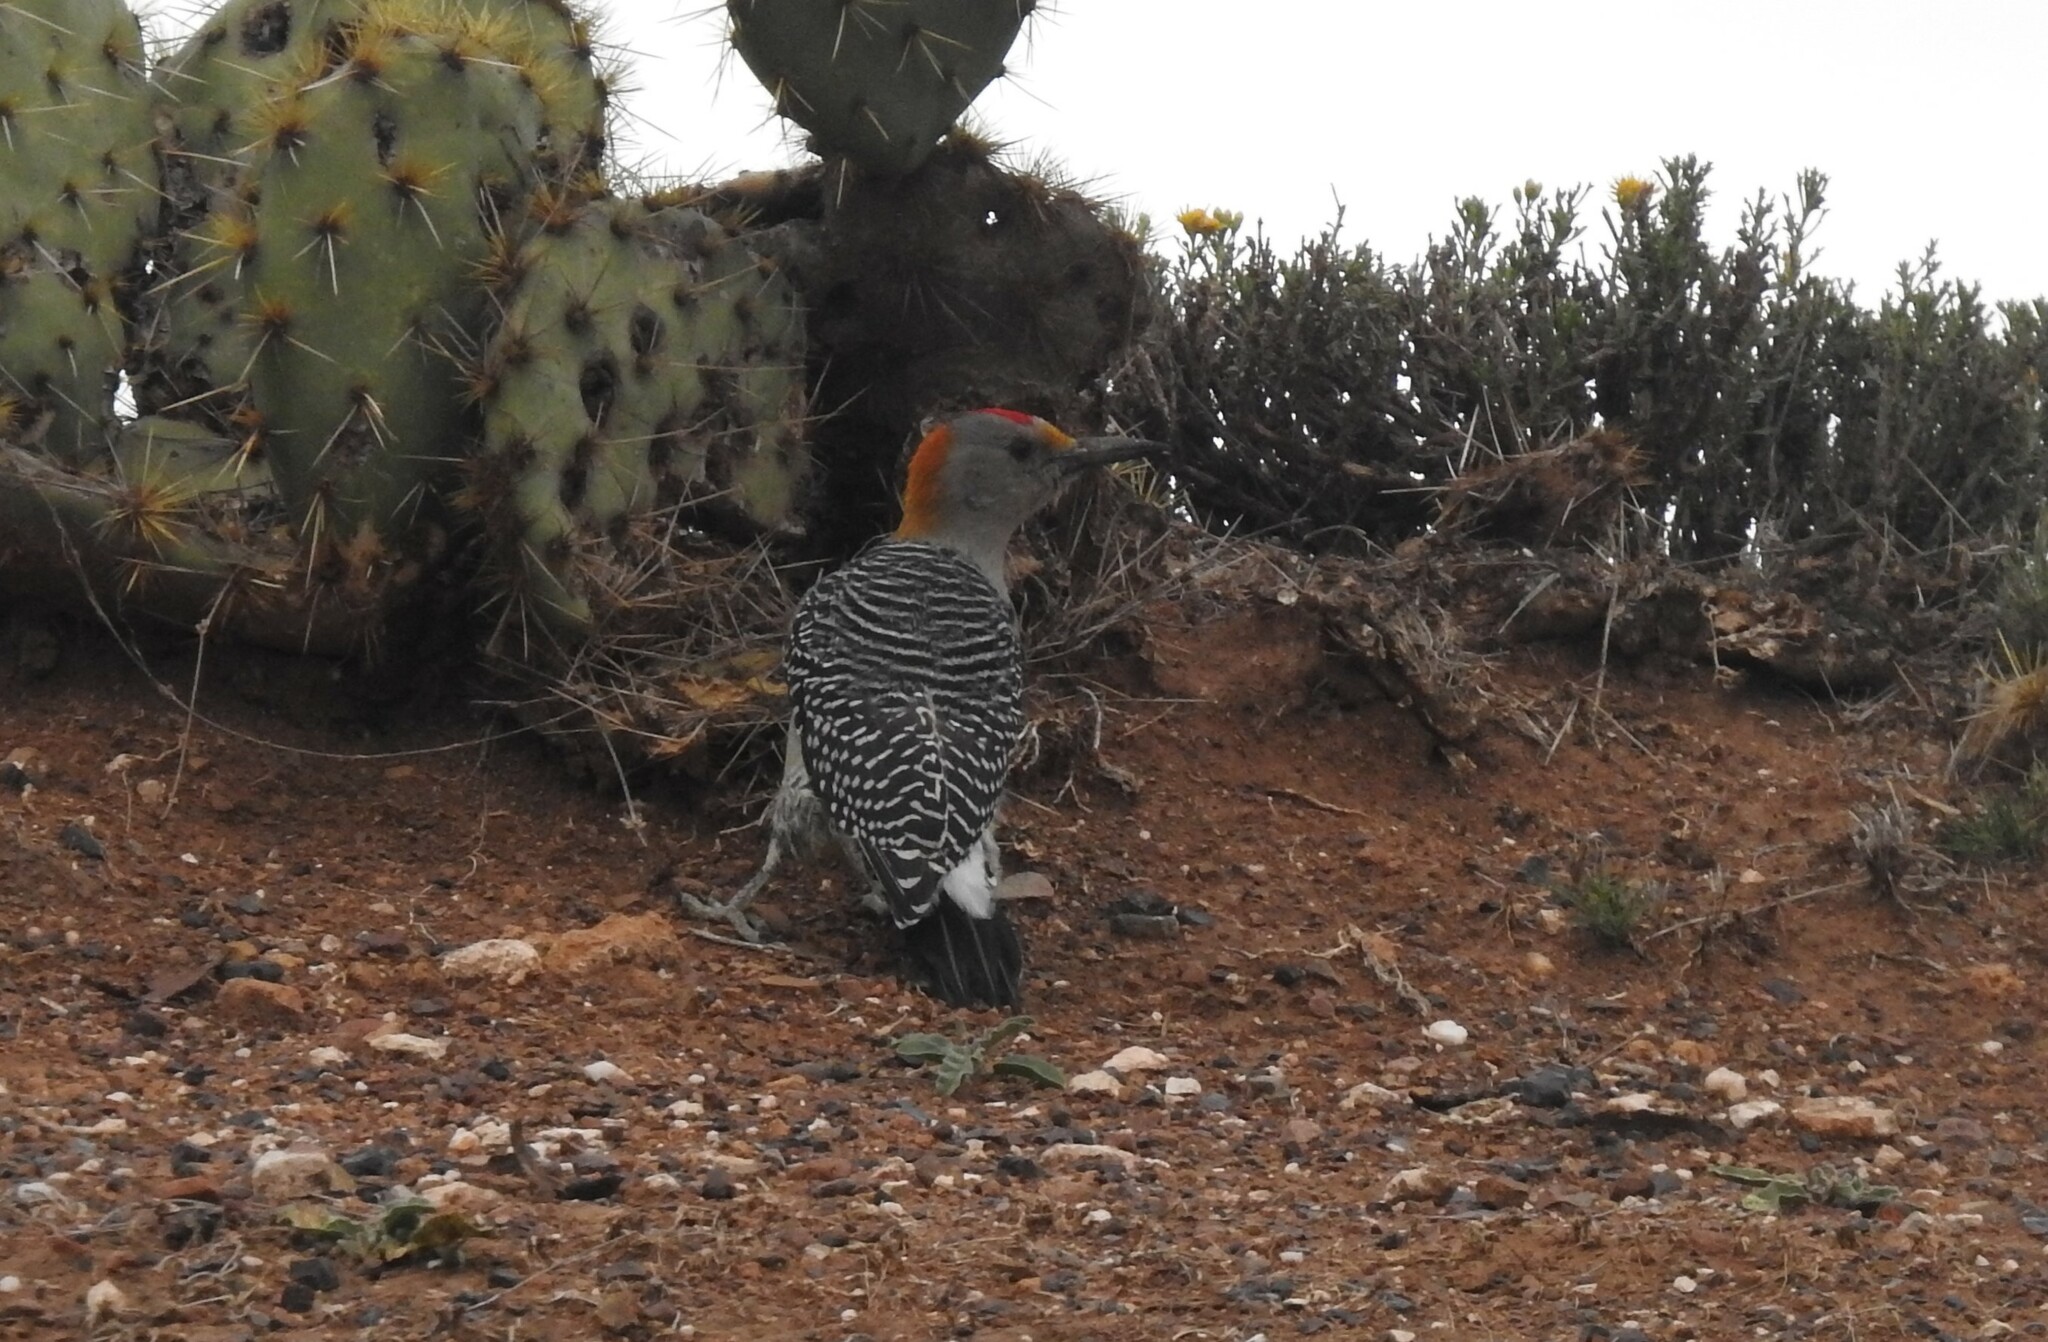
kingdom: Animalia
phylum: Chordata
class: Aves
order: Piciformes
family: Picidae
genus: Melanerpes
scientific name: Melanerpes aurifrons
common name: Golden-fronted woodpecker
